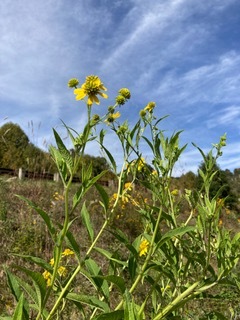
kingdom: Plantae
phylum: Tracheophyta
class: Magnoliopsida
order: Asterales
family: Asteraceae
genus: Verbesina
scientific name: Verbesina alternifolia
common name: Wingstem
